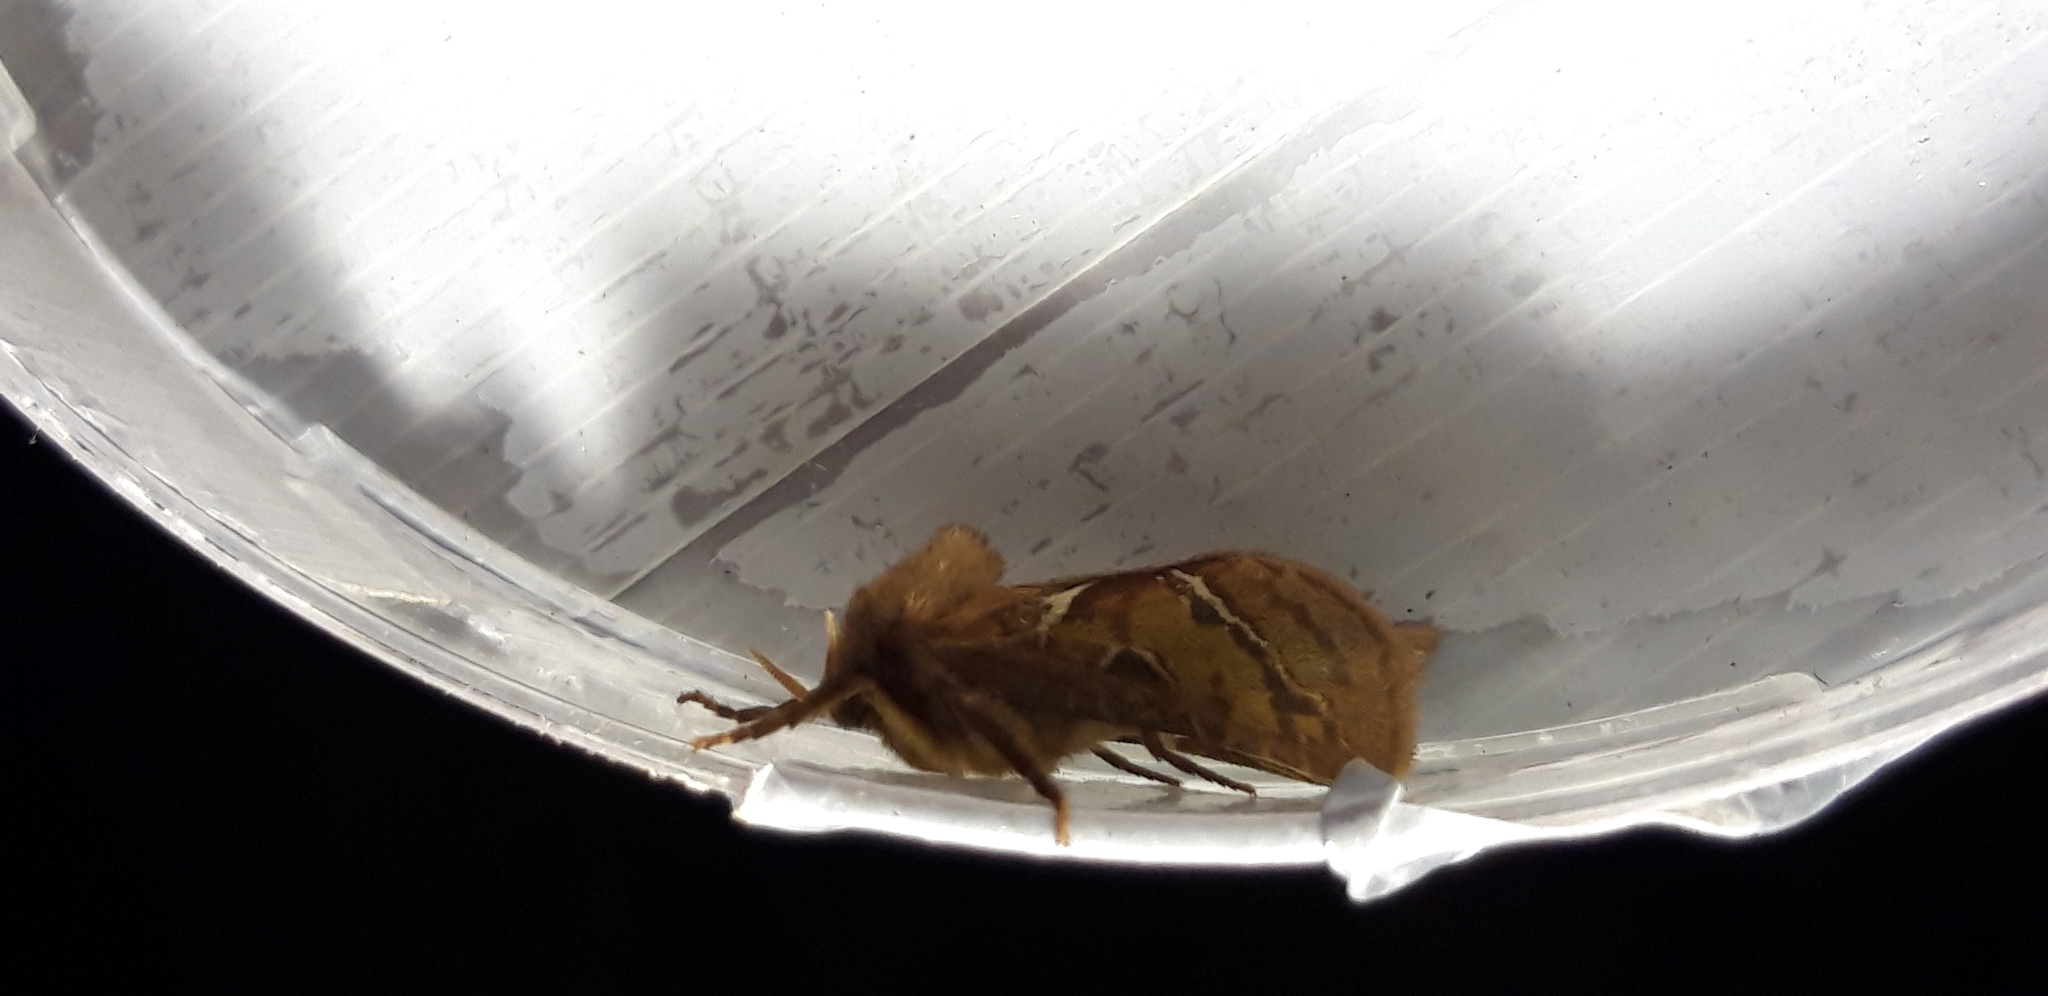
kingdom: Animalia
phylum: Arthropoda
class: Insecta
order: Lepidoptera
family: Hepialidae
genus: Triodia
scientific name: Triodia sylvina
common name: Orange swift
